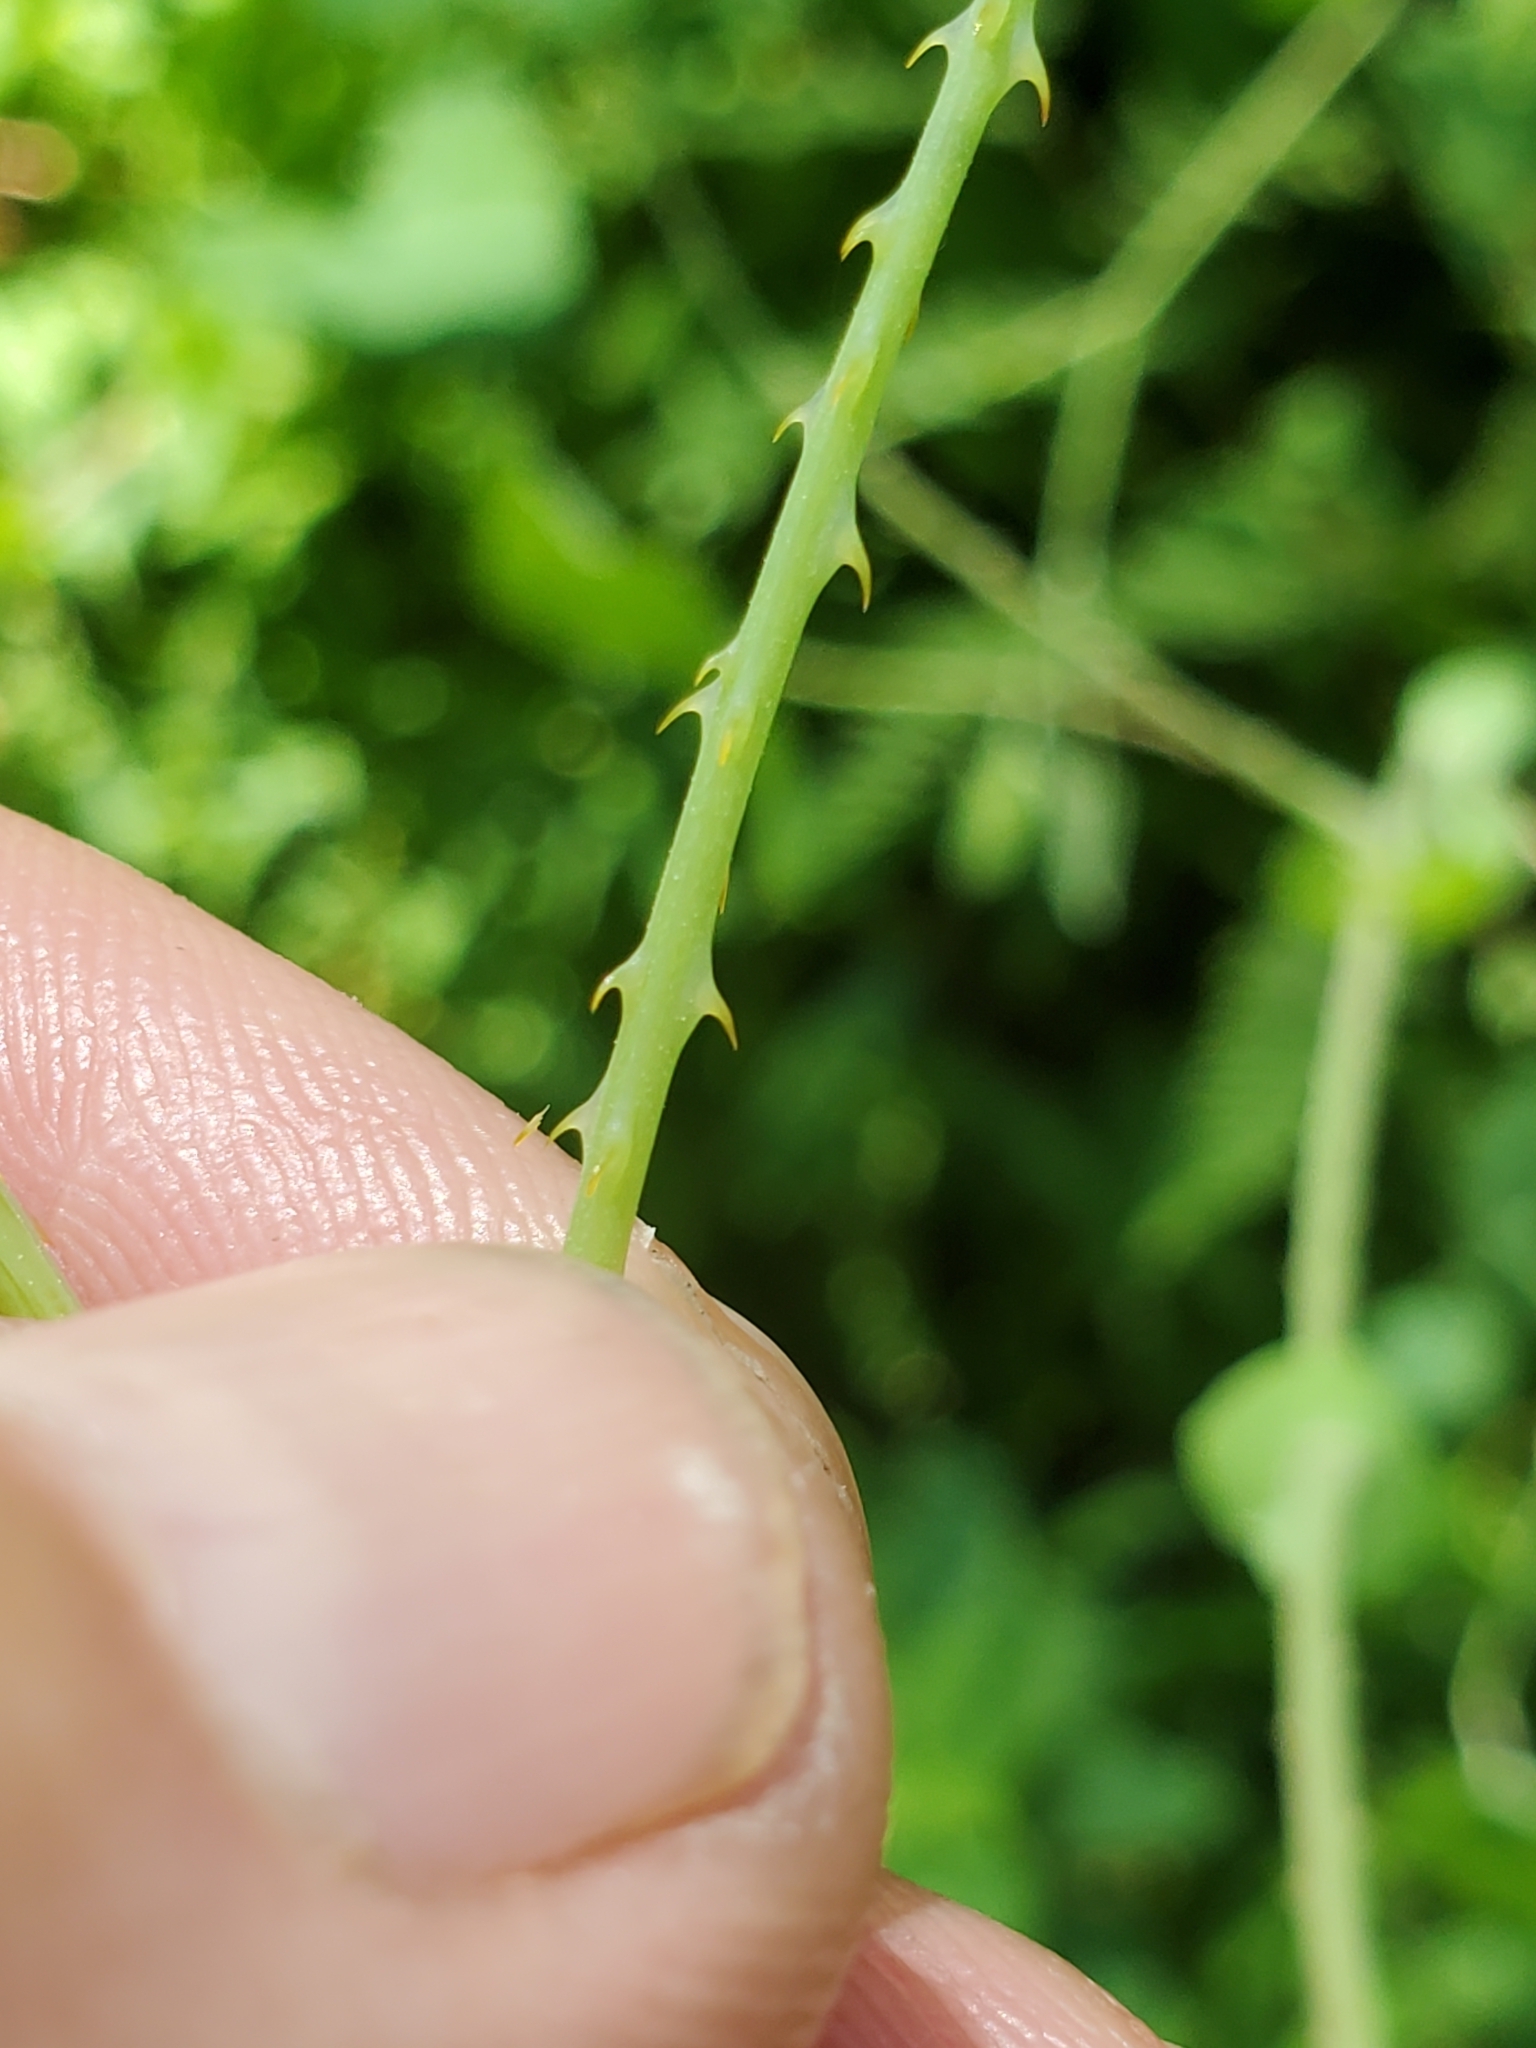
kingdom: Plantae
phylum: Tracheophyta
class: Magnoliopsida
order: Caryophyllales
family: Polygonaceae
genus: Persicaria
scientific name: Persicaria perfoliata
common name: Asiatic tearthumb
